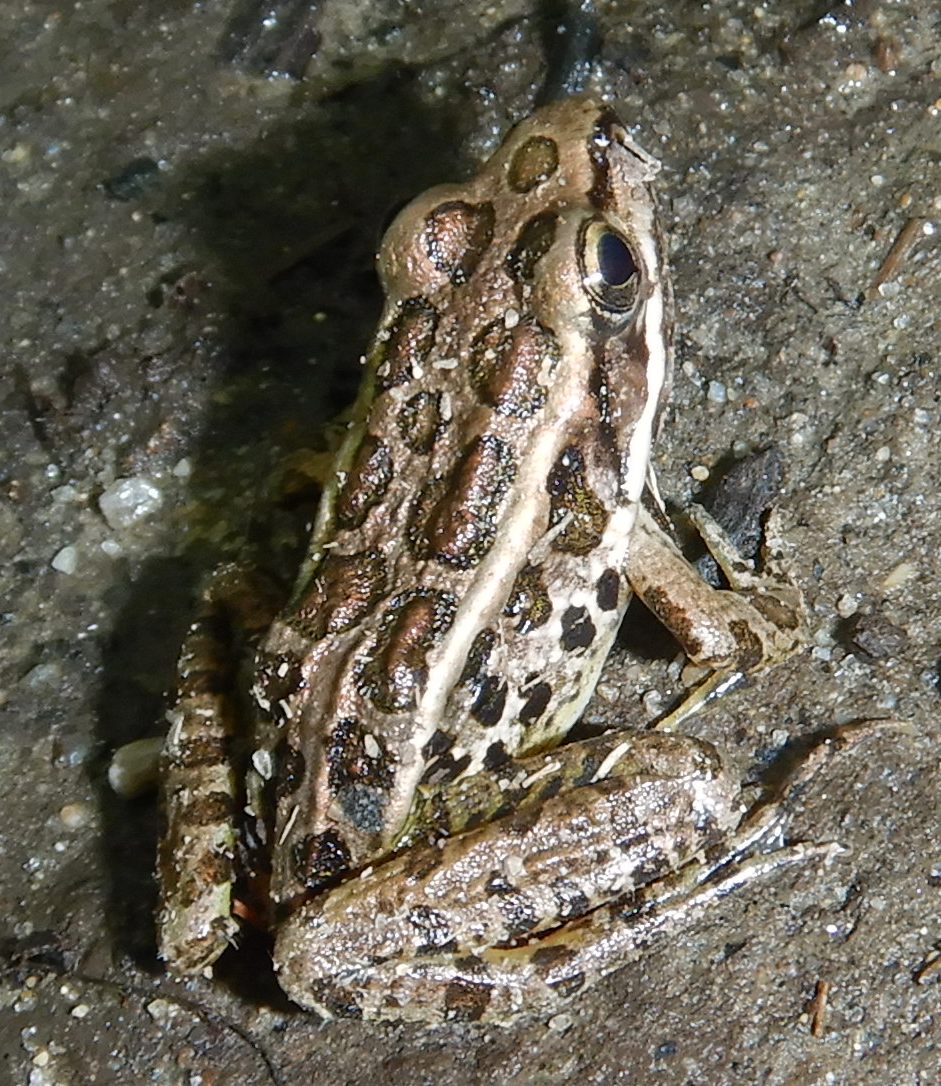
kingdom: Animalia
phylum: Chordata
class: Amphibia
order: Anura
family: Ranidae
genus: Lithobates
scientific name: Lithobates palustris
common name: Pickerel frog
